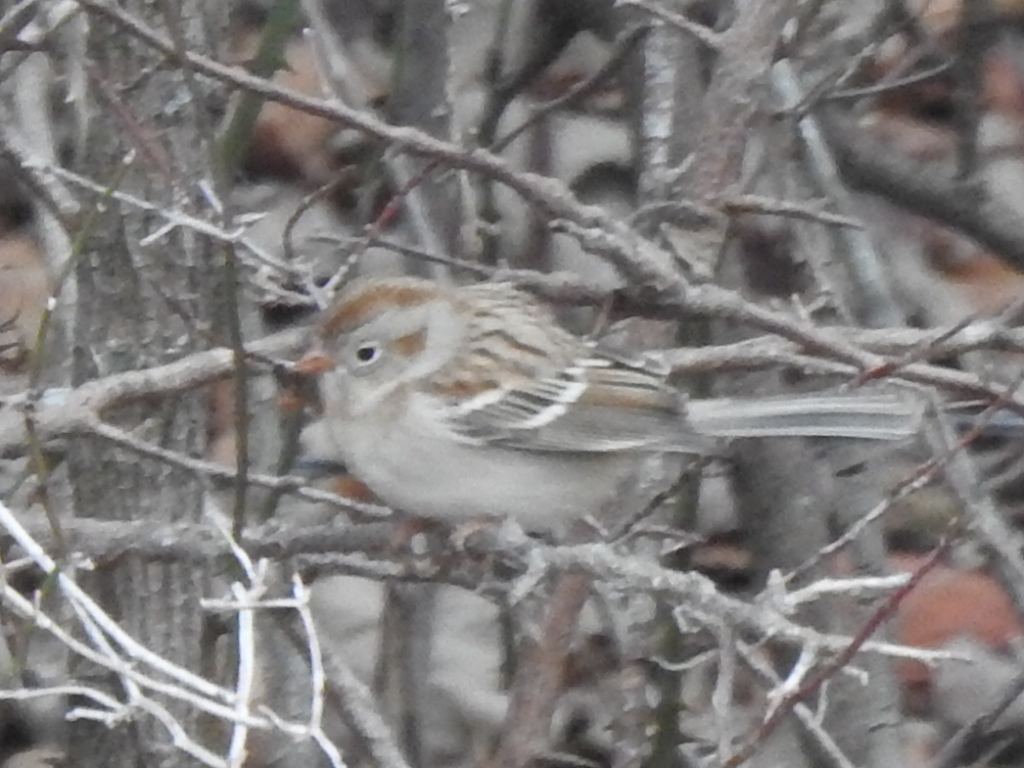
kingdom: Animalia
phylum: Chordata
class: Aves
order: Passeriformes
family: Passerellidae
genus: Spizella
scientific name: Spizella pusilla
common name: Field sparrow
